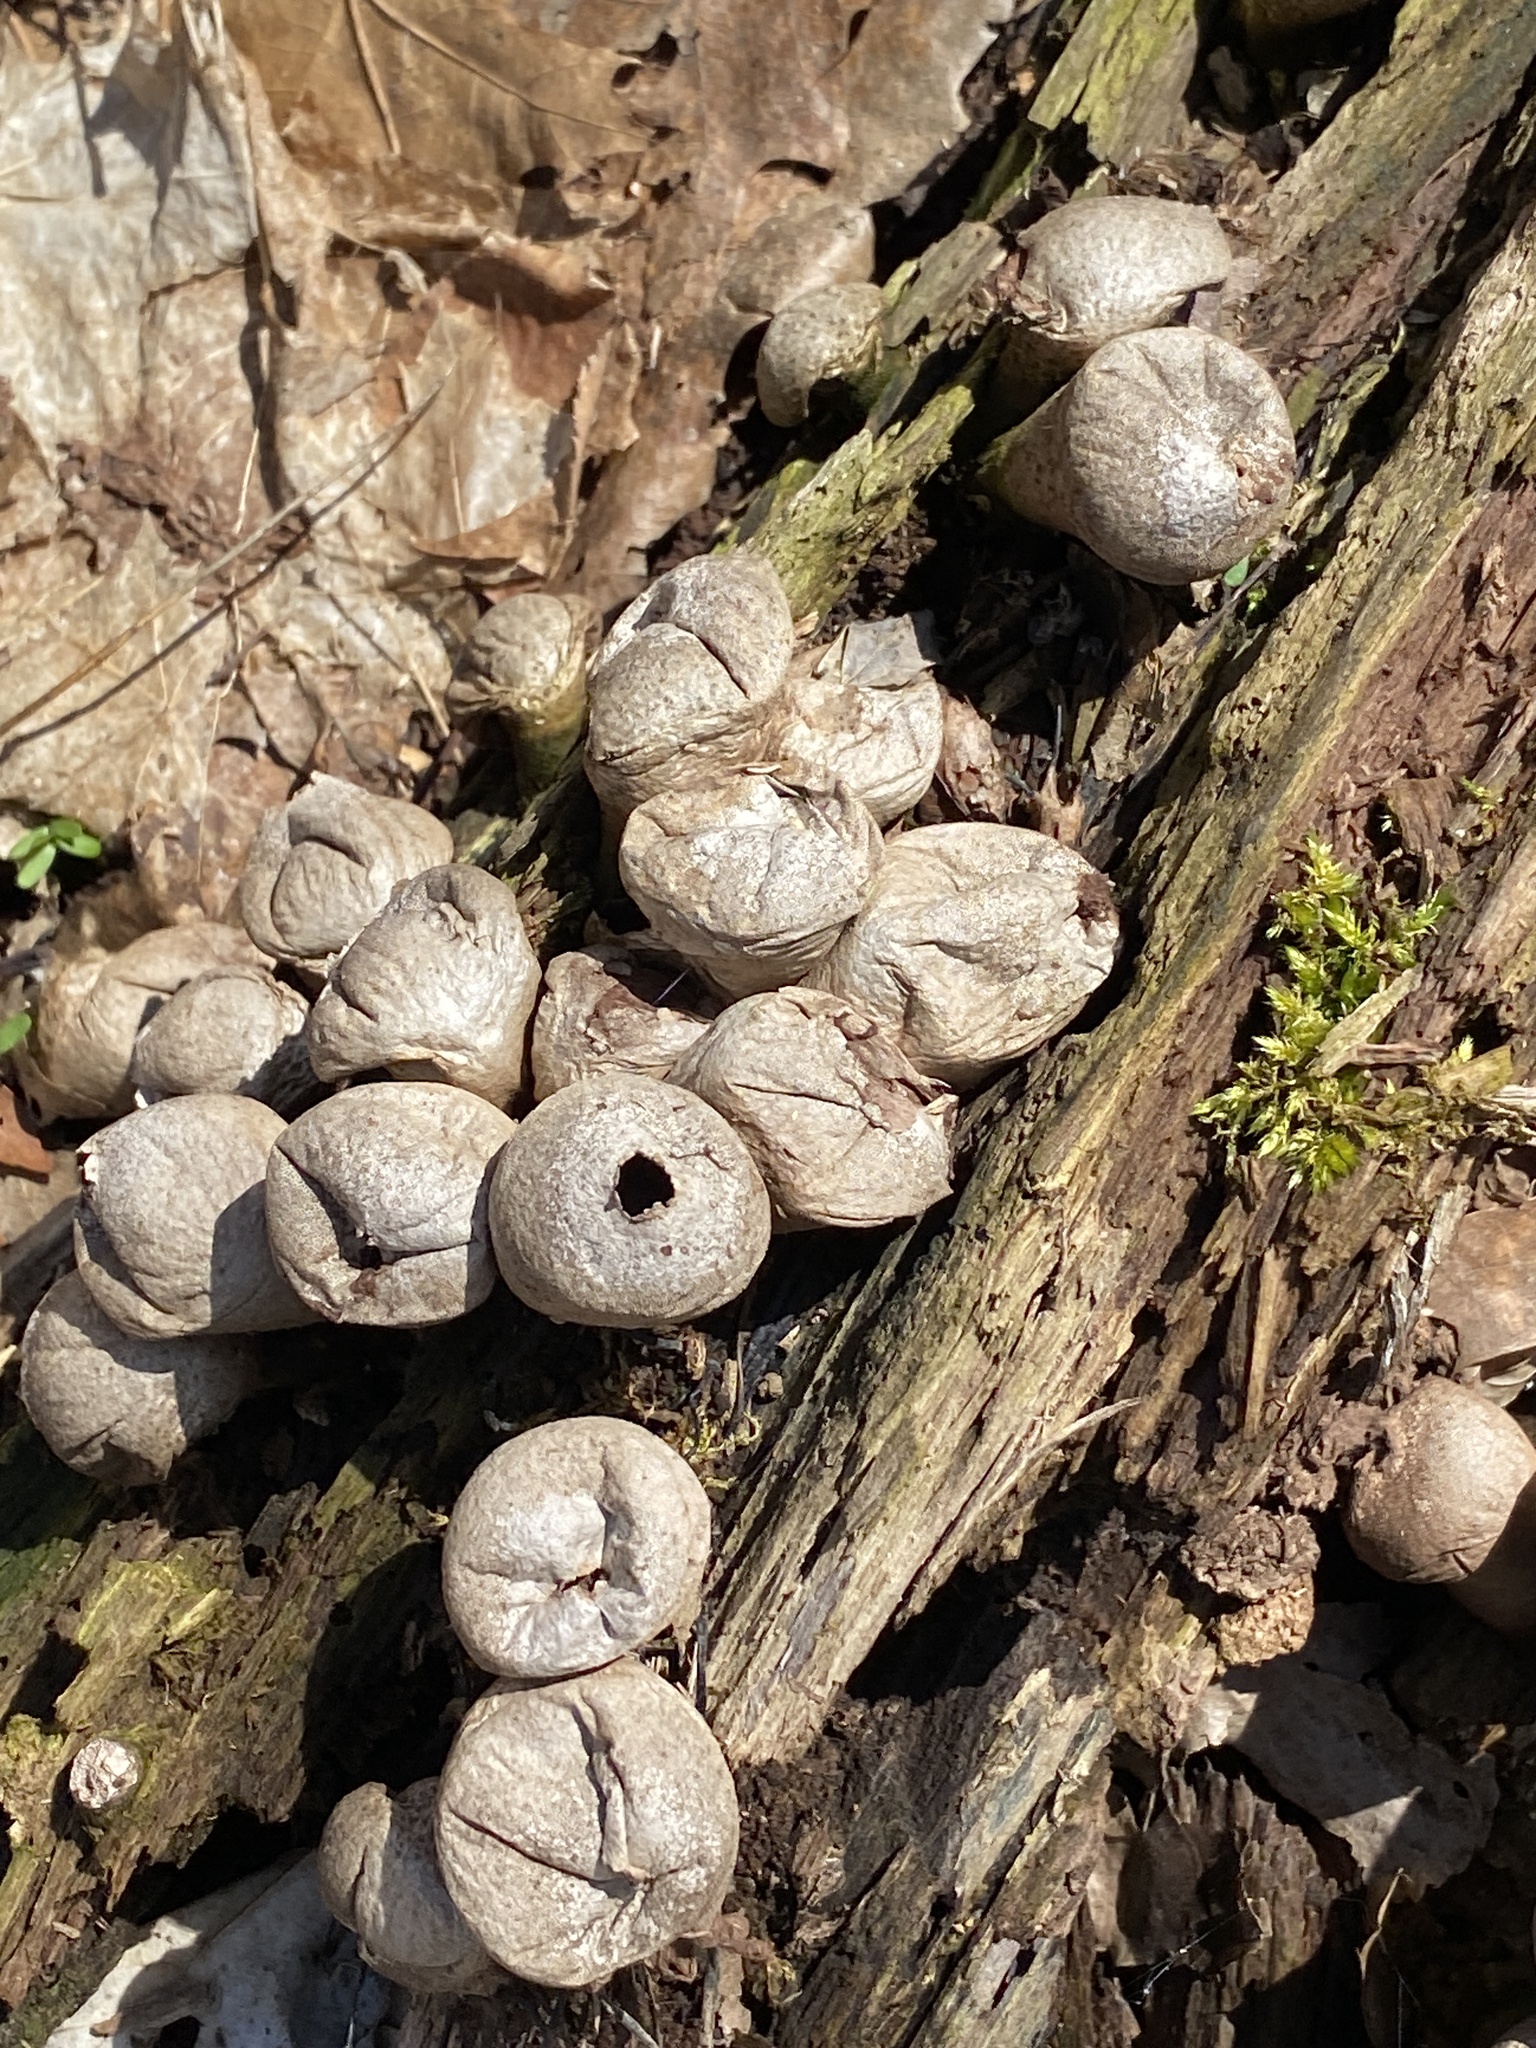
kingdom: Fungi
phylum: Basidiomycota
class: Agaricomycetes
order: Agaricales
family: Lycoperdaceae
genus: Apioperdon
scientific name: Apioperdon pyriforme
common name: Pear-shaped puffball
